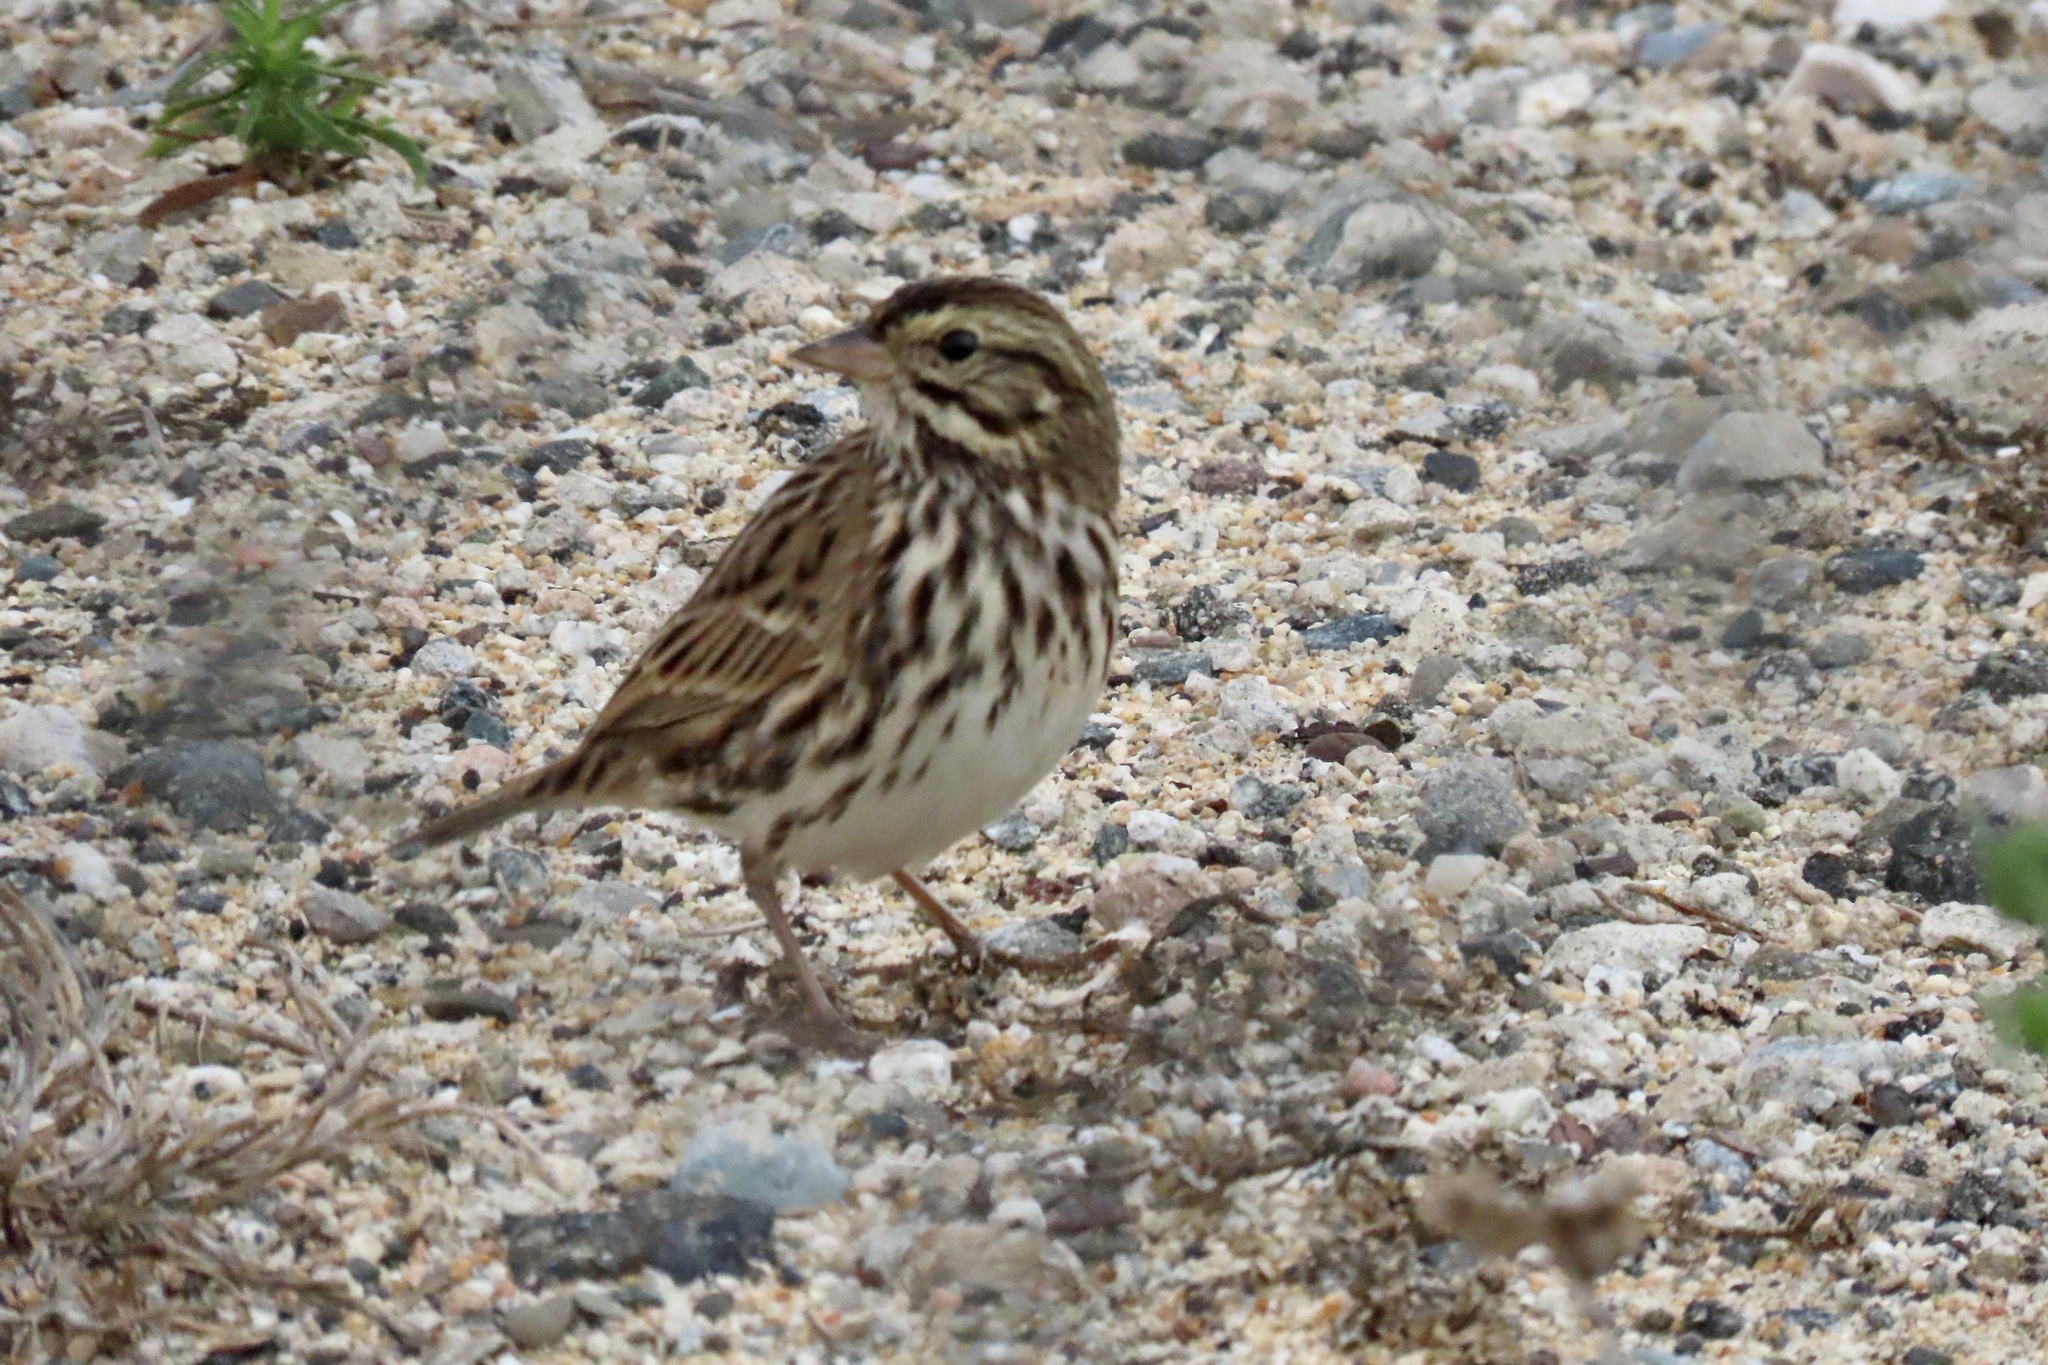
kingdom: Animalia
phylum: Chordata
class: Aves
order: Passeriformes
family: Passerellidae
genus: Passerculus
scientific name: Passerculus sandwichensis
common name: Savannah sparrow
